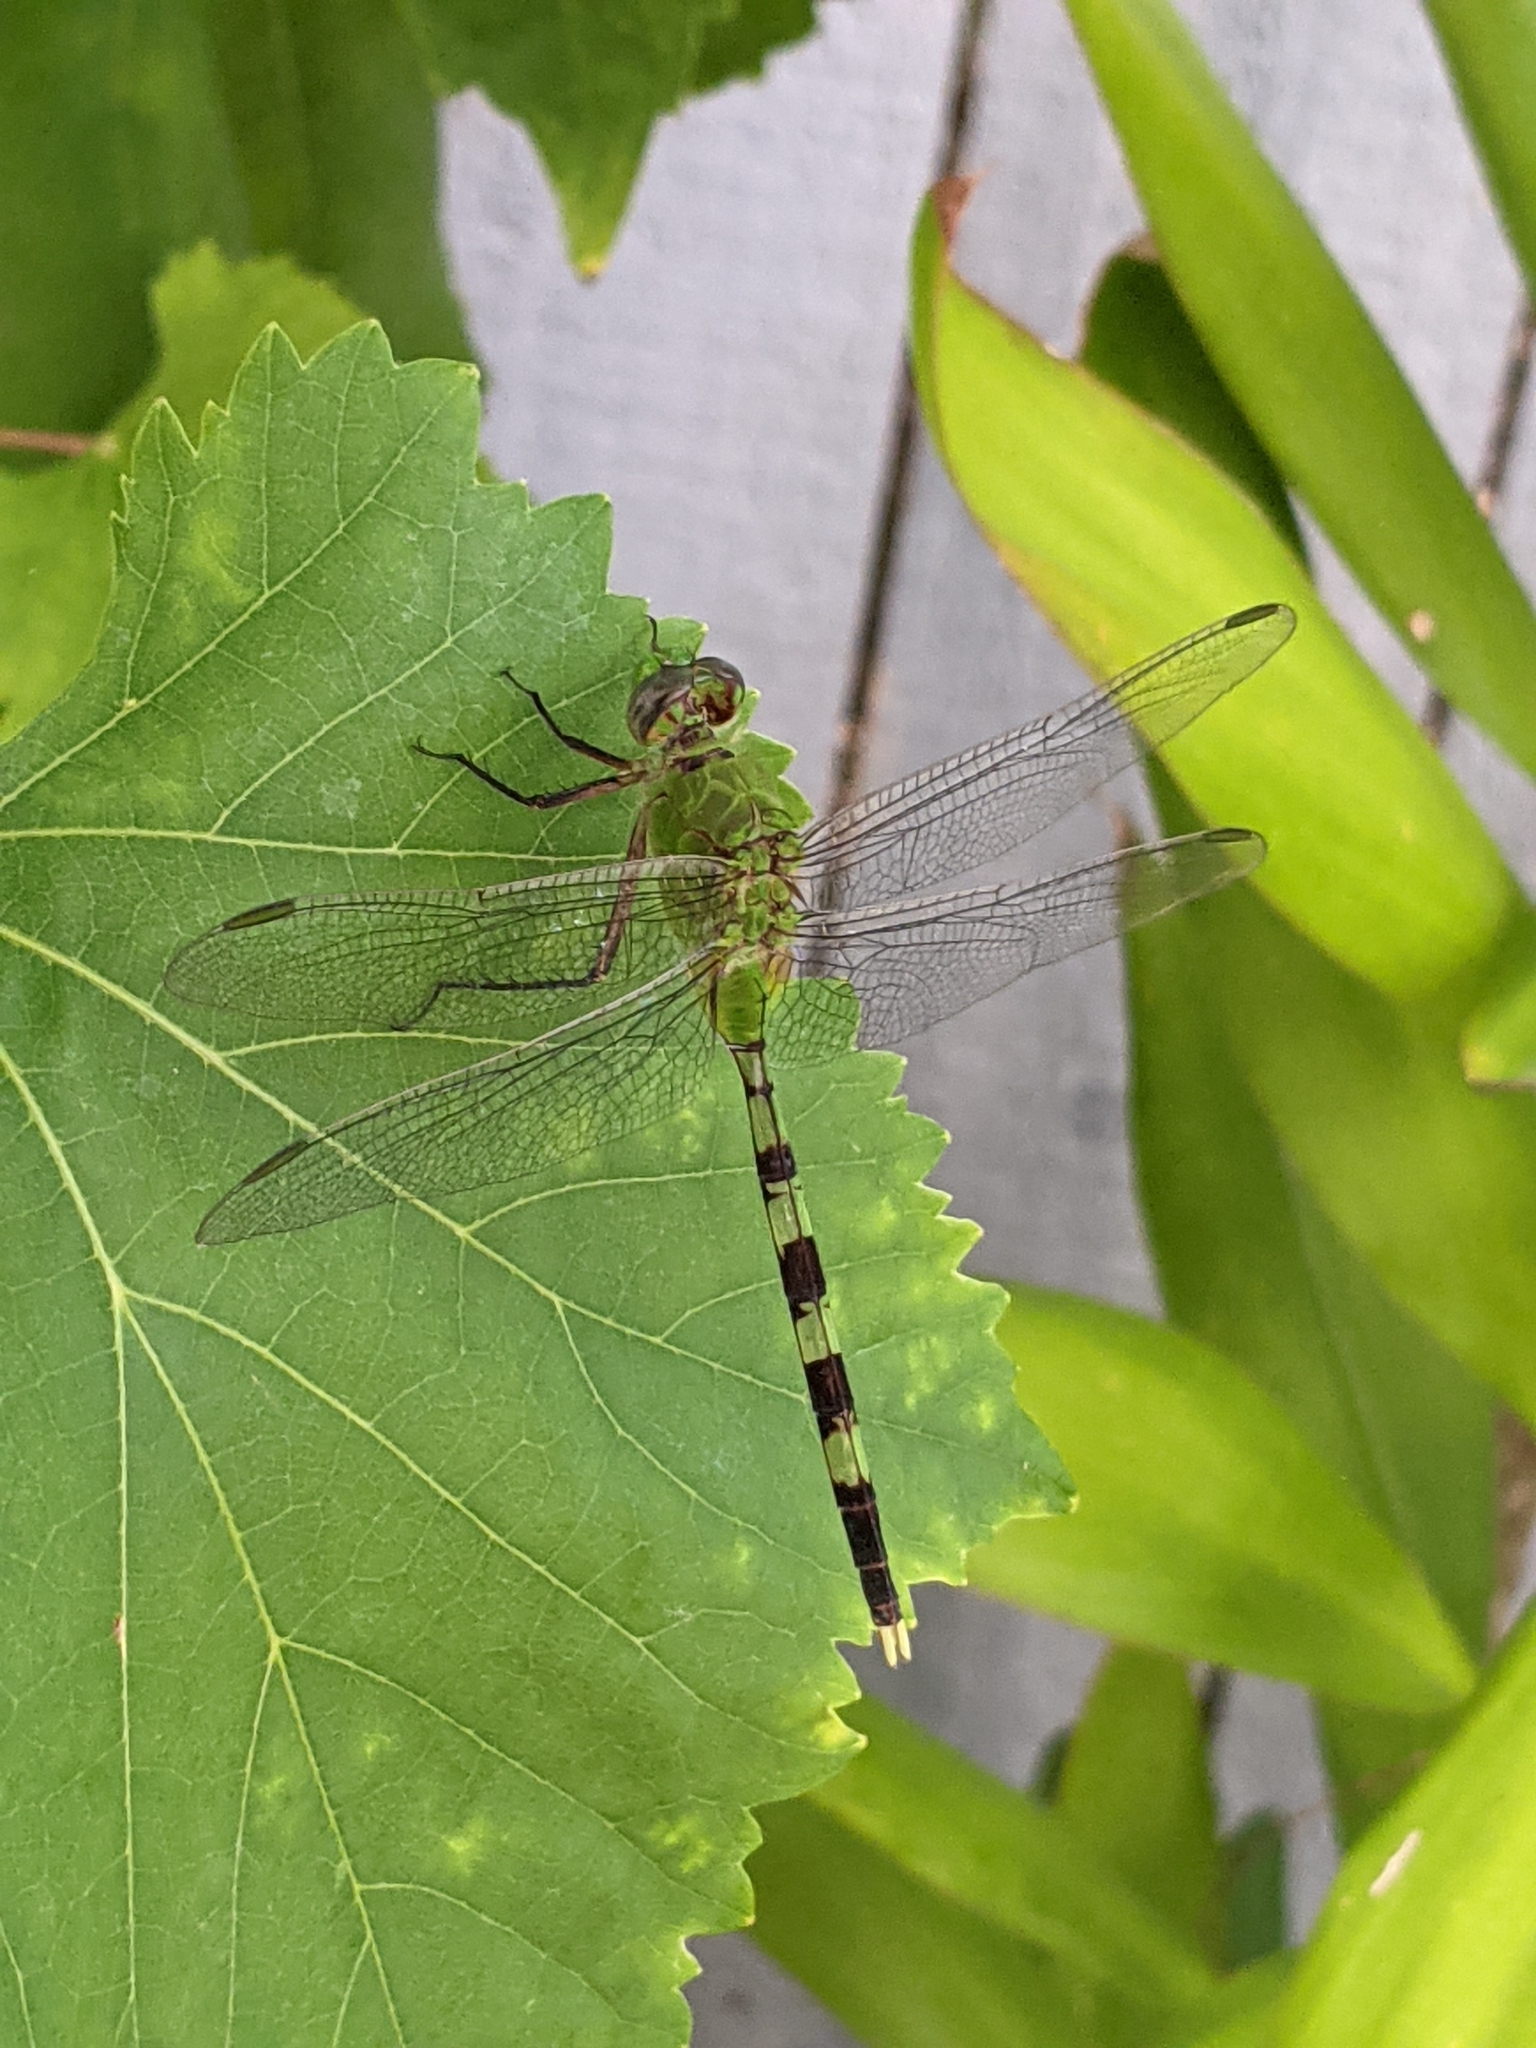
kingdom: Animalia
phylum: Arthropoda
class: Insecta
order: Odonata
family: Libellulidae
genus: Erythemis
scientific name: Erythemis vesiculosa
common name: Great pondhawk
